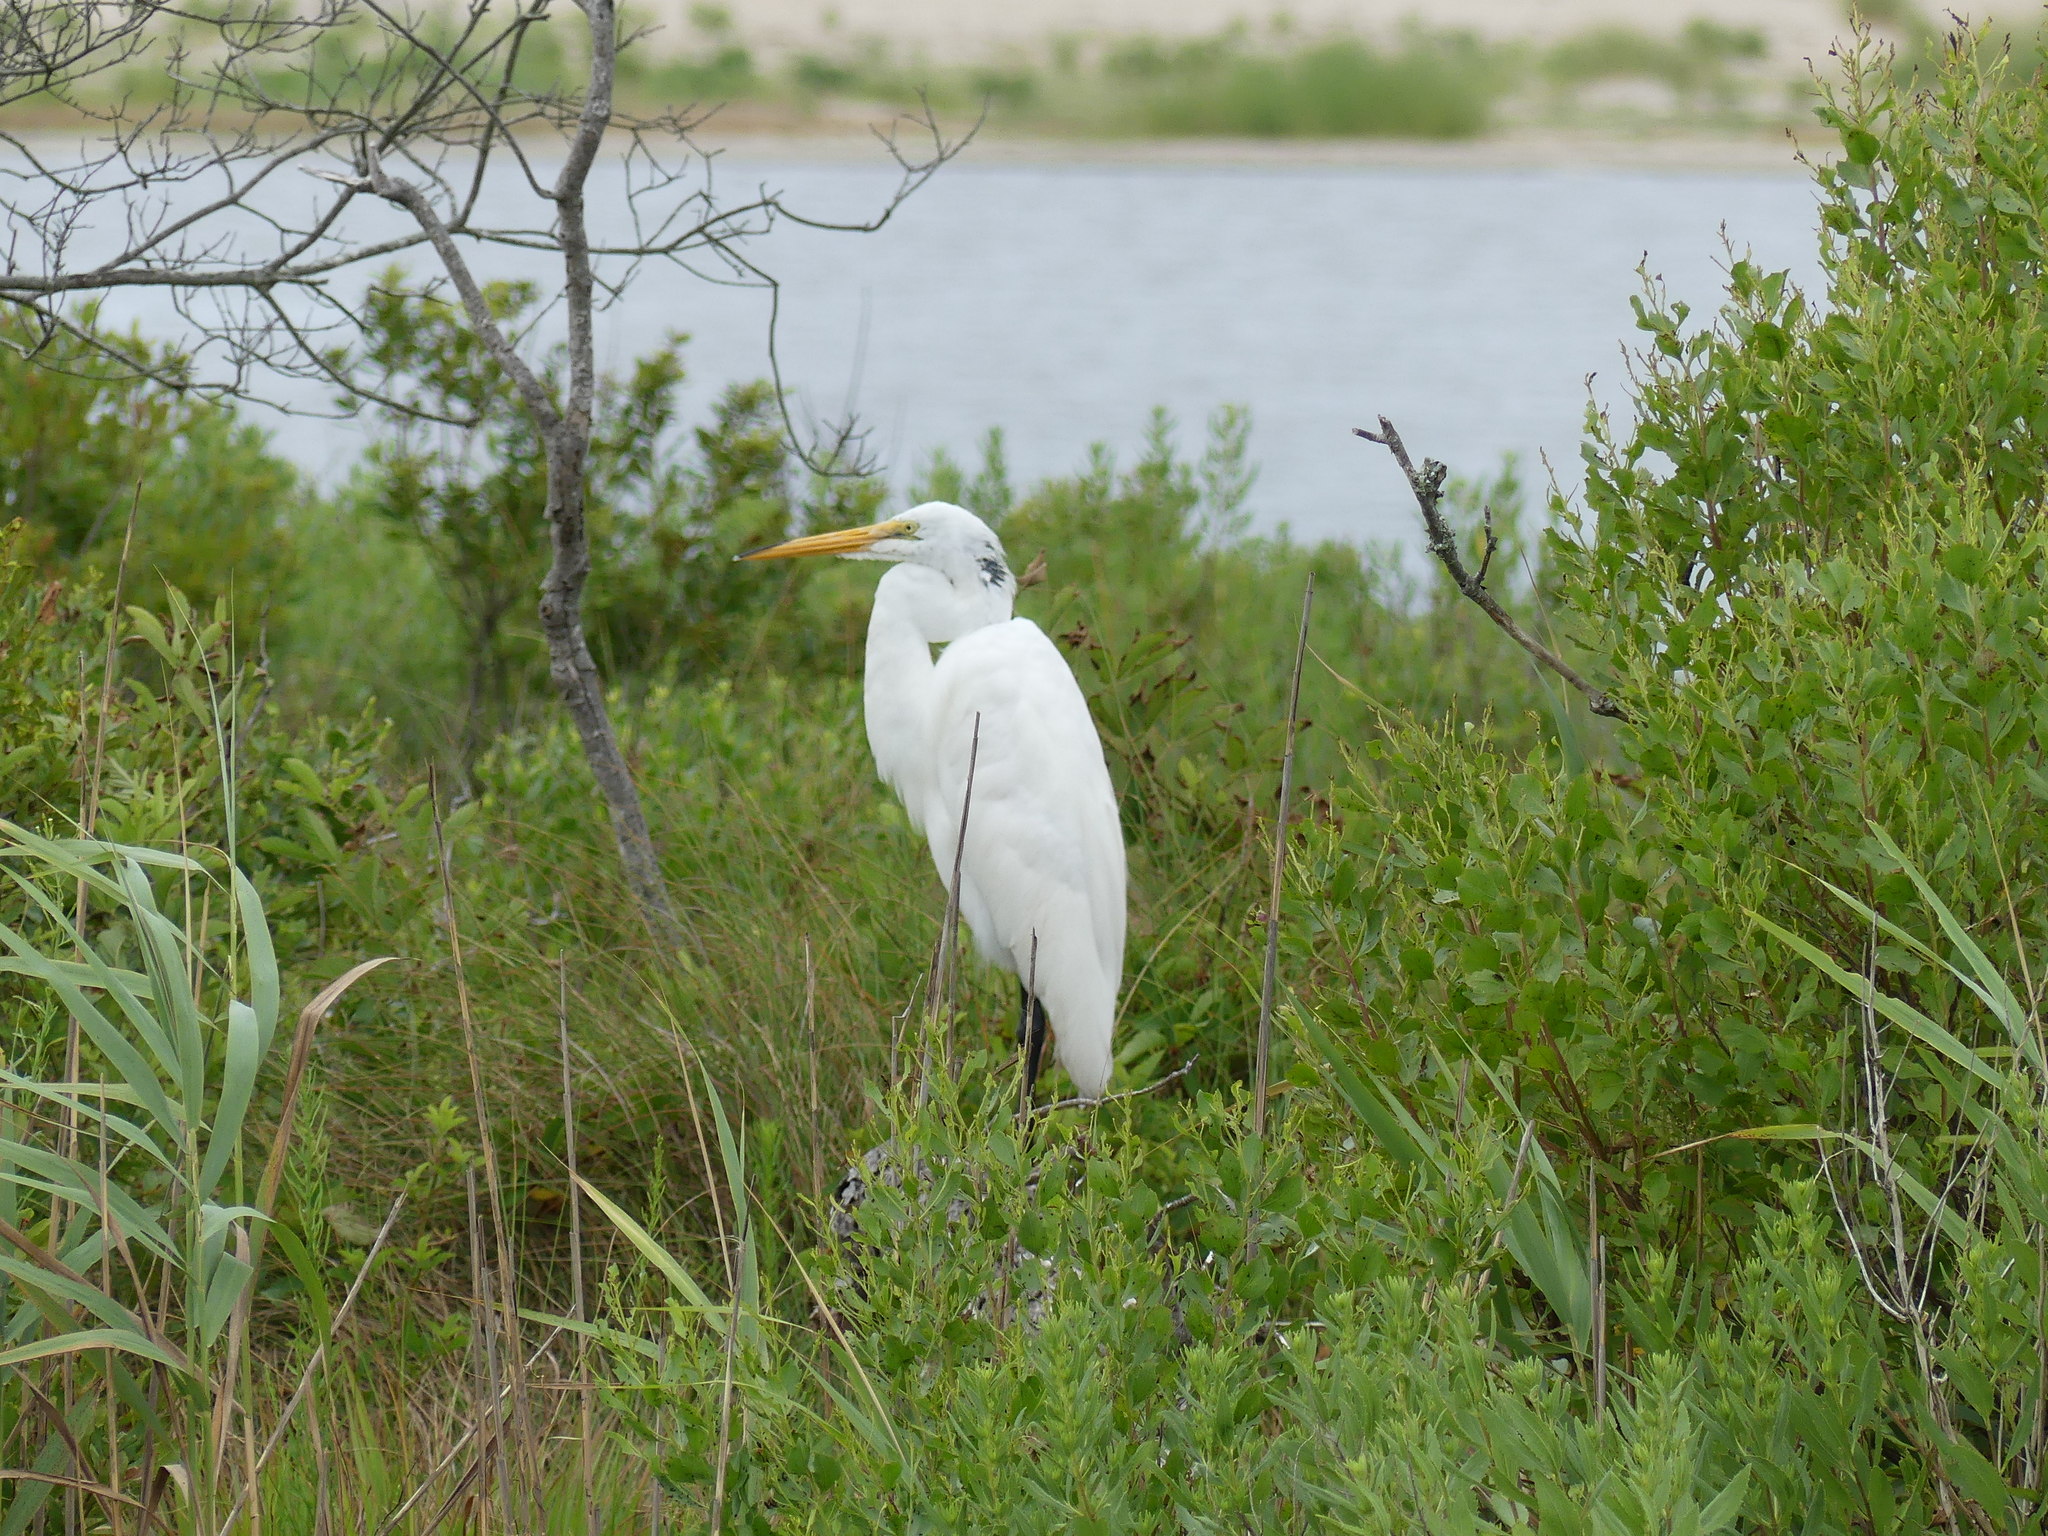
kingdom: Animalia
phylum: Chordata
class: Aves
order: Pelecaniformes
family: Ardeidae
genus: Ardea
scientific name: Ardea alba
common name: Great egret
